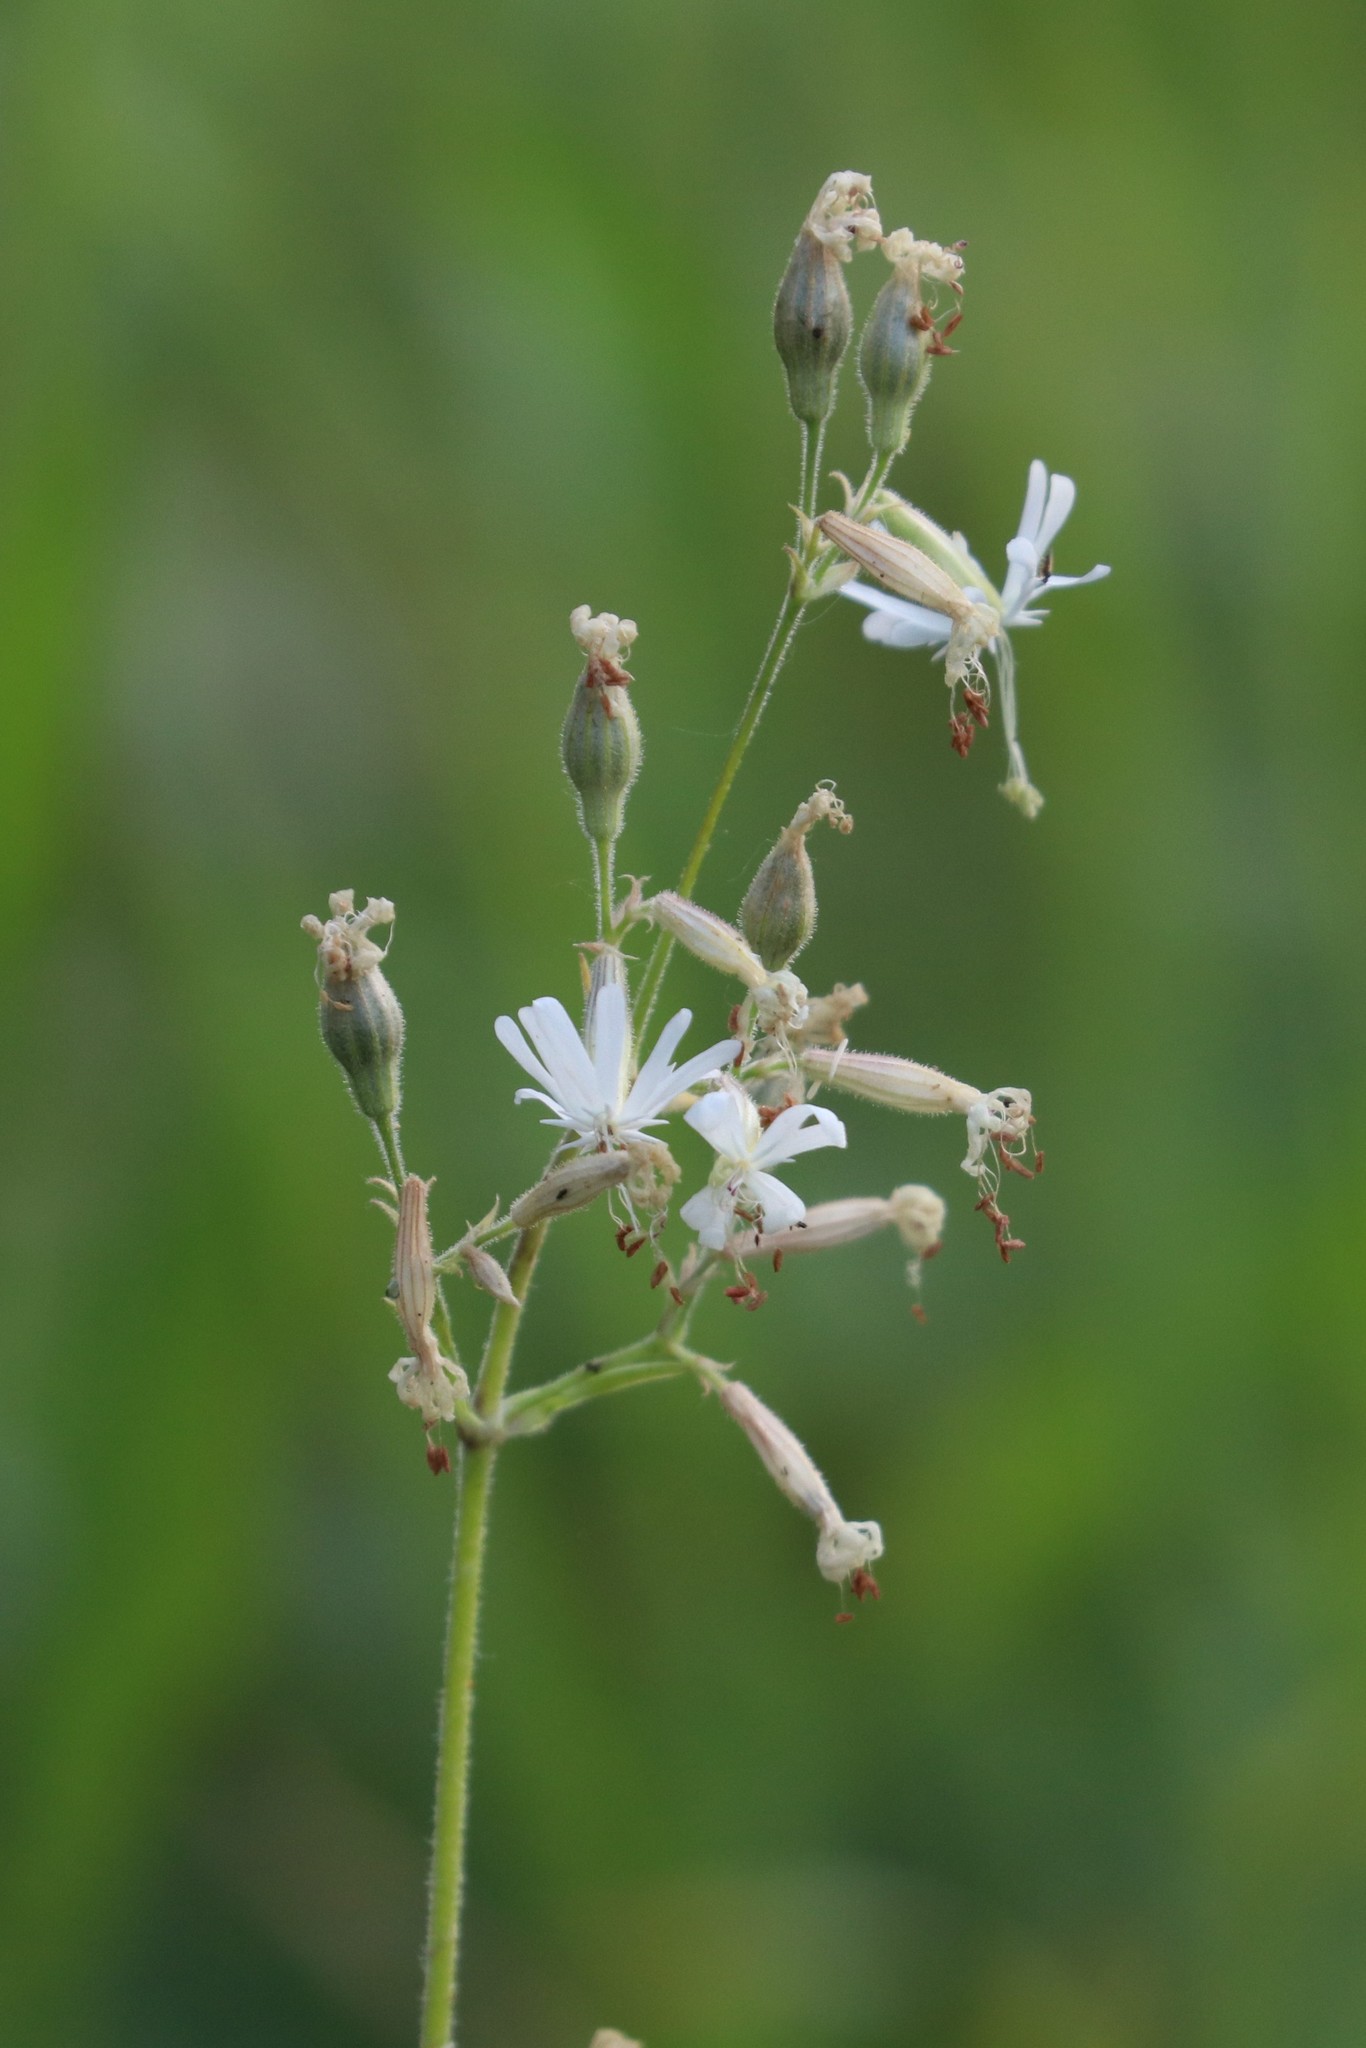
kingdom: Plantae
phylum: Tracheophyta
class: Magnoliopsida
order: Caryophyllales
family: Caryophyllaceae
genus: Silene
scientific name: Silene nutans
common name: Nottingham catchfly
